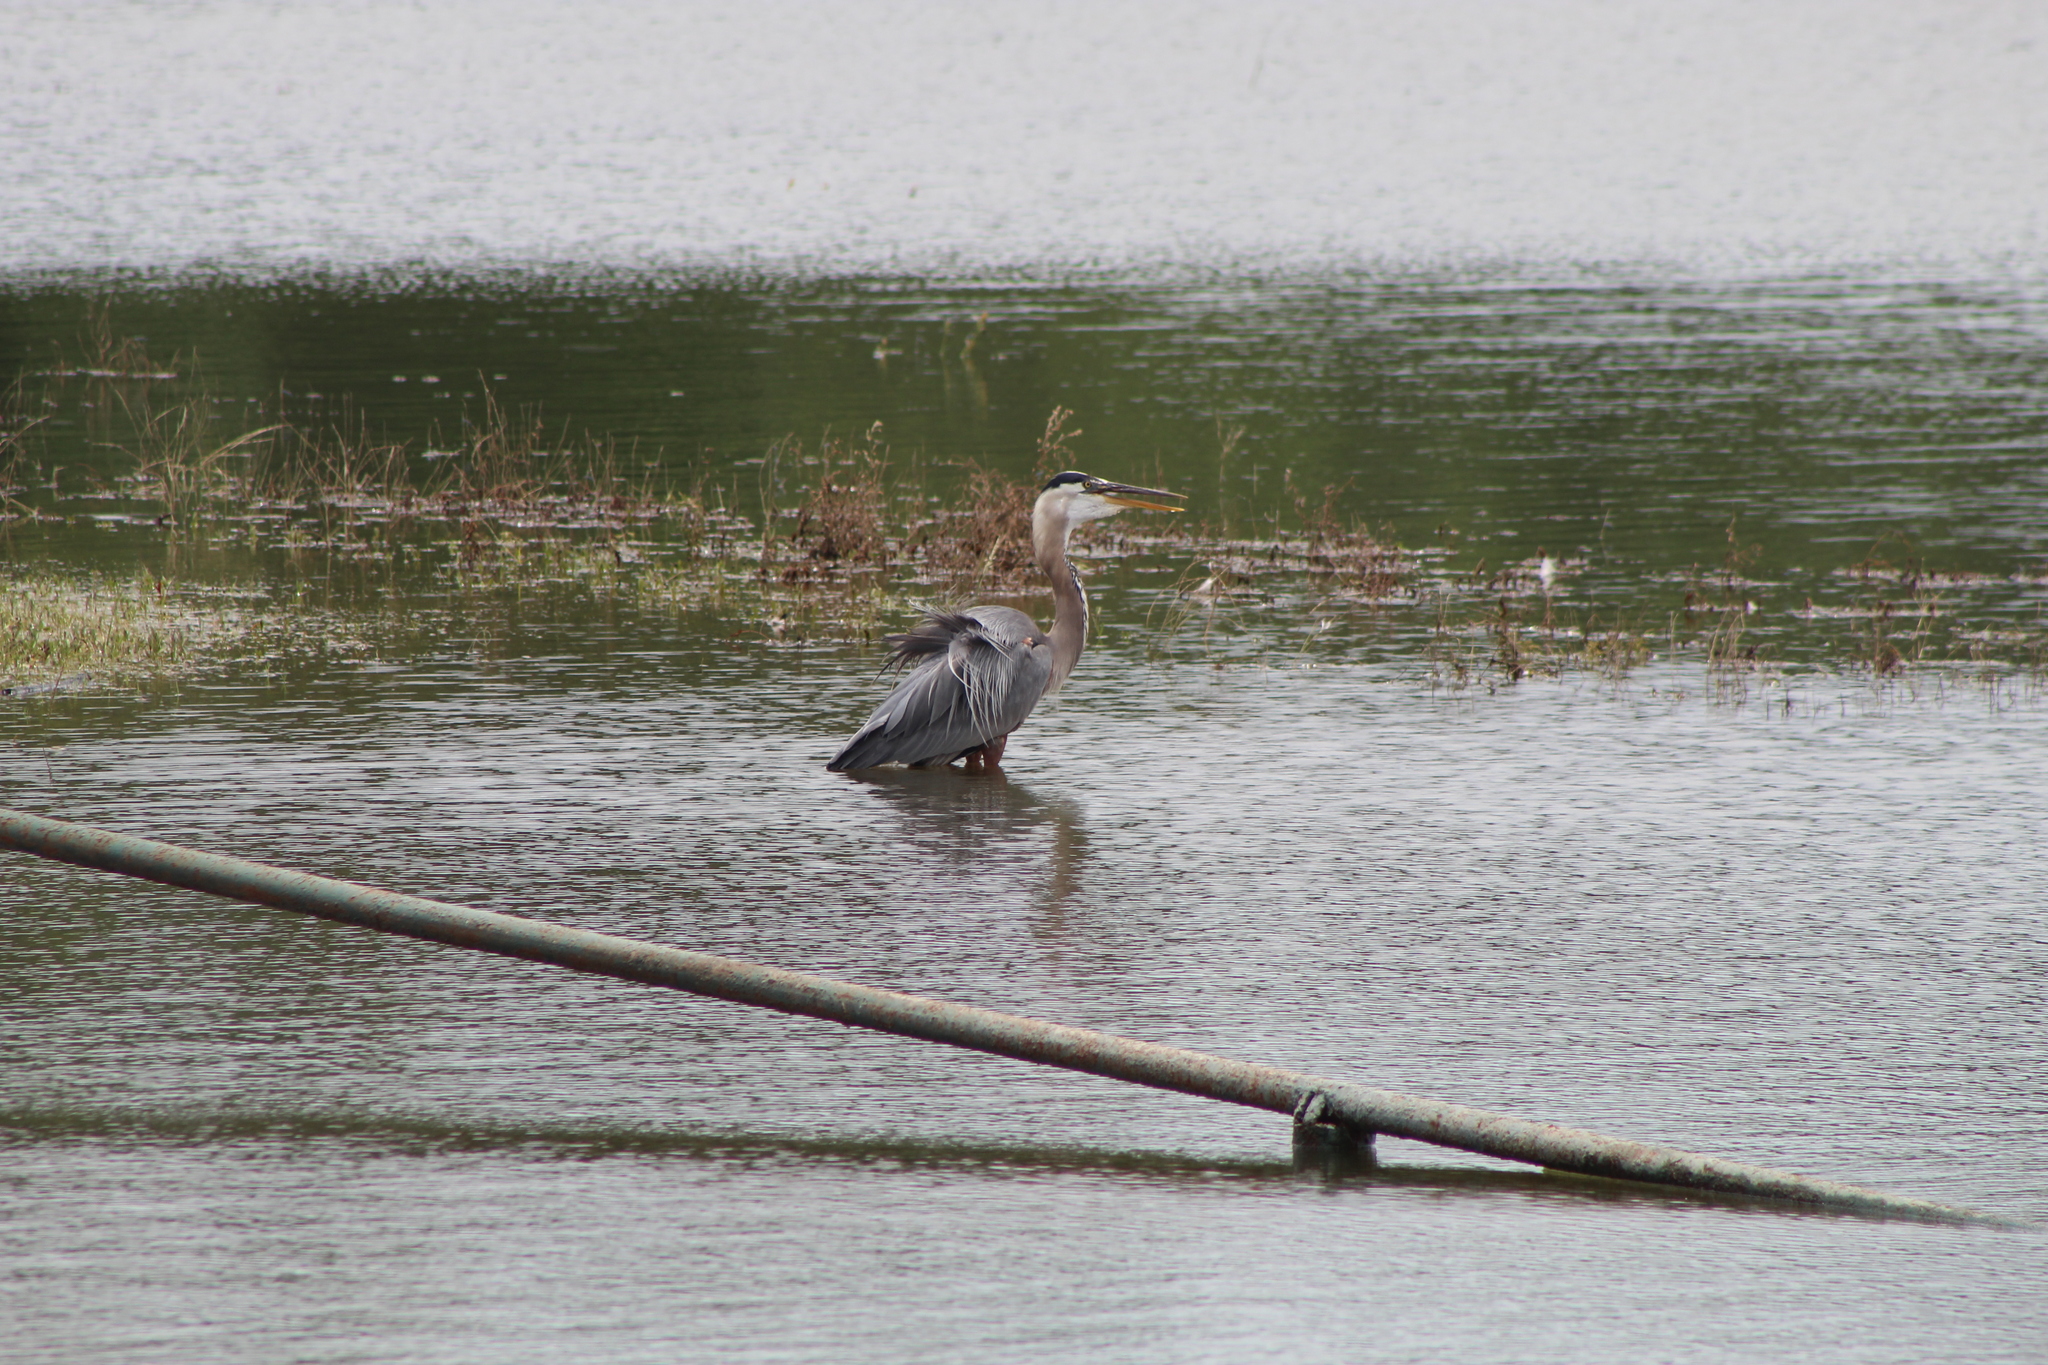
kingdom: Animalia
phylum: Chordata
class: Aves
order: Pelecaniformes
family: Ardeidae
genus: Ardea
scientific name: Ardea herodias
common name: Great blue heron
